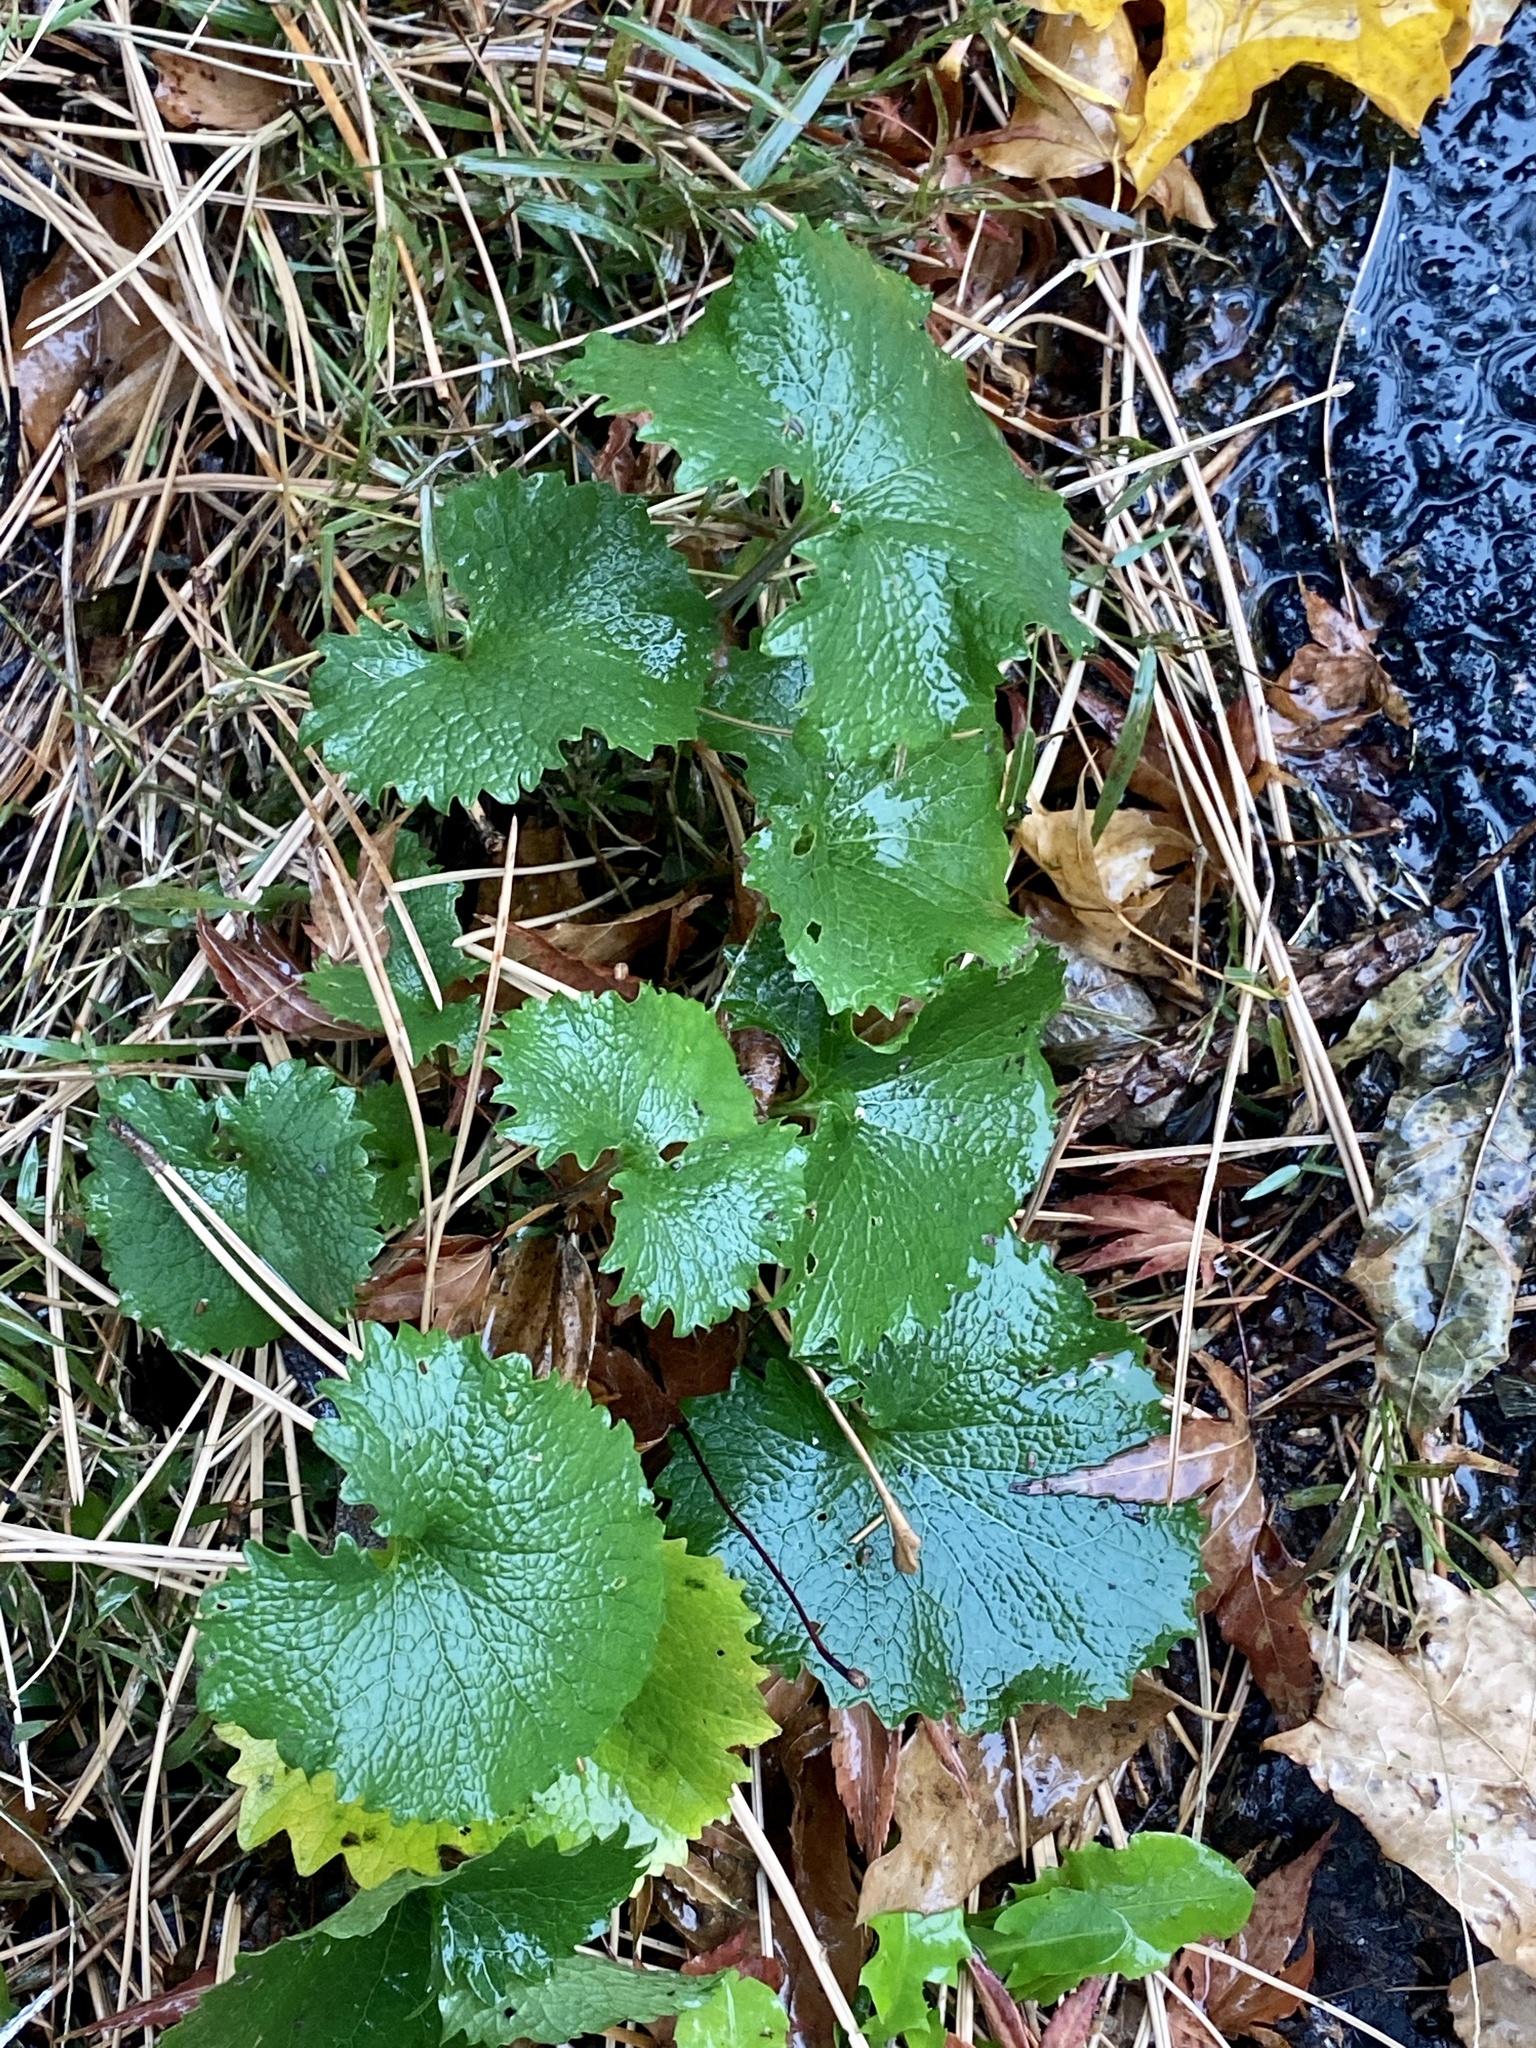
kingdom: Plantae
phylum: Tracheophyta
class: Magnoliopsida
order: Brassicales
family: Brassicaceae
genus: Alliaria
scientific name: Alliaria petiolata
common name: Garlic mustard
